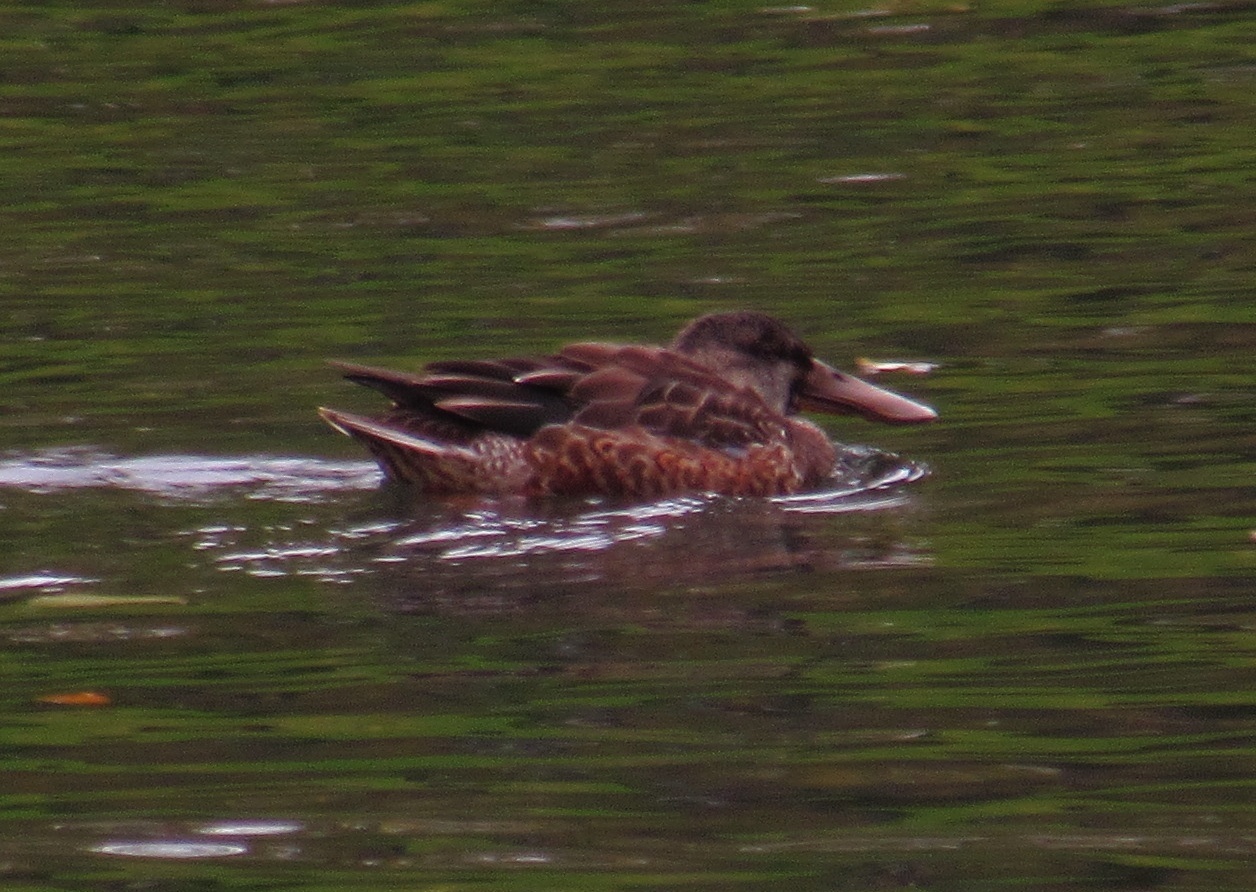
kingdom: Animalia
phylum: Chordata
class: Aves
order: Anseriformes
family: Anatidae
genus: Spatula
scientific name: Spatula clypeata
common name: Northern shoveler
